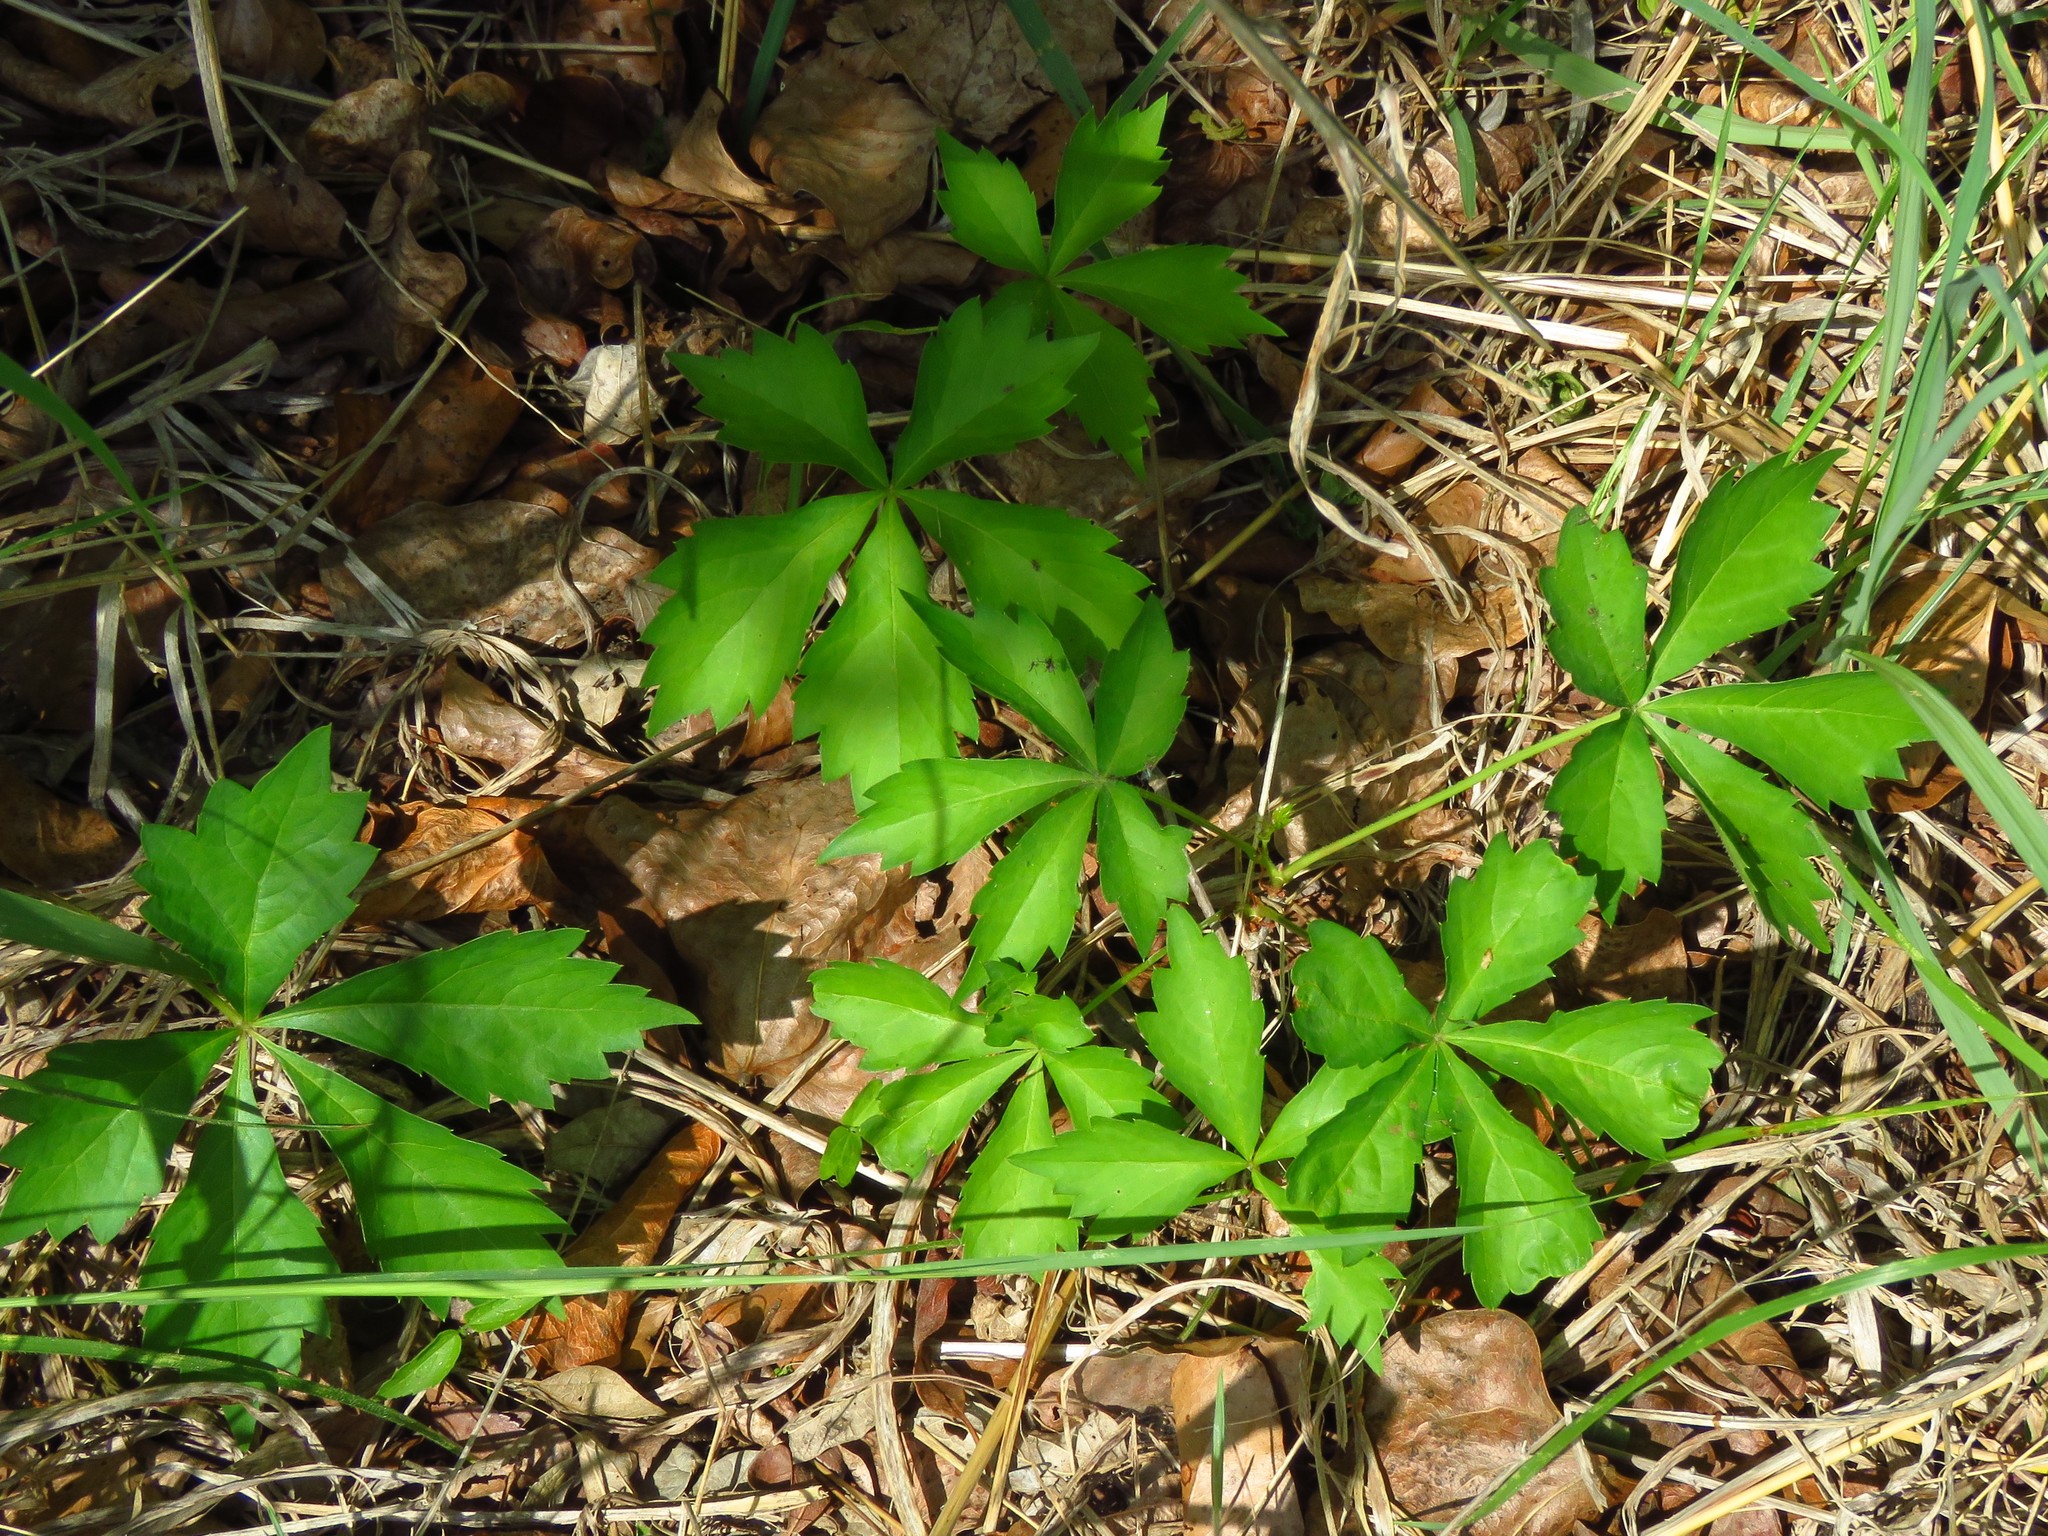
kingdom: Plantae
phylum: Tracheophyta
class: Magnoliopsida
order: Vitales
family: Vitaceae
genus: Parthenocissus
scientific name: Parthenocissus quinquefolia
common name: Virginia-creeper
